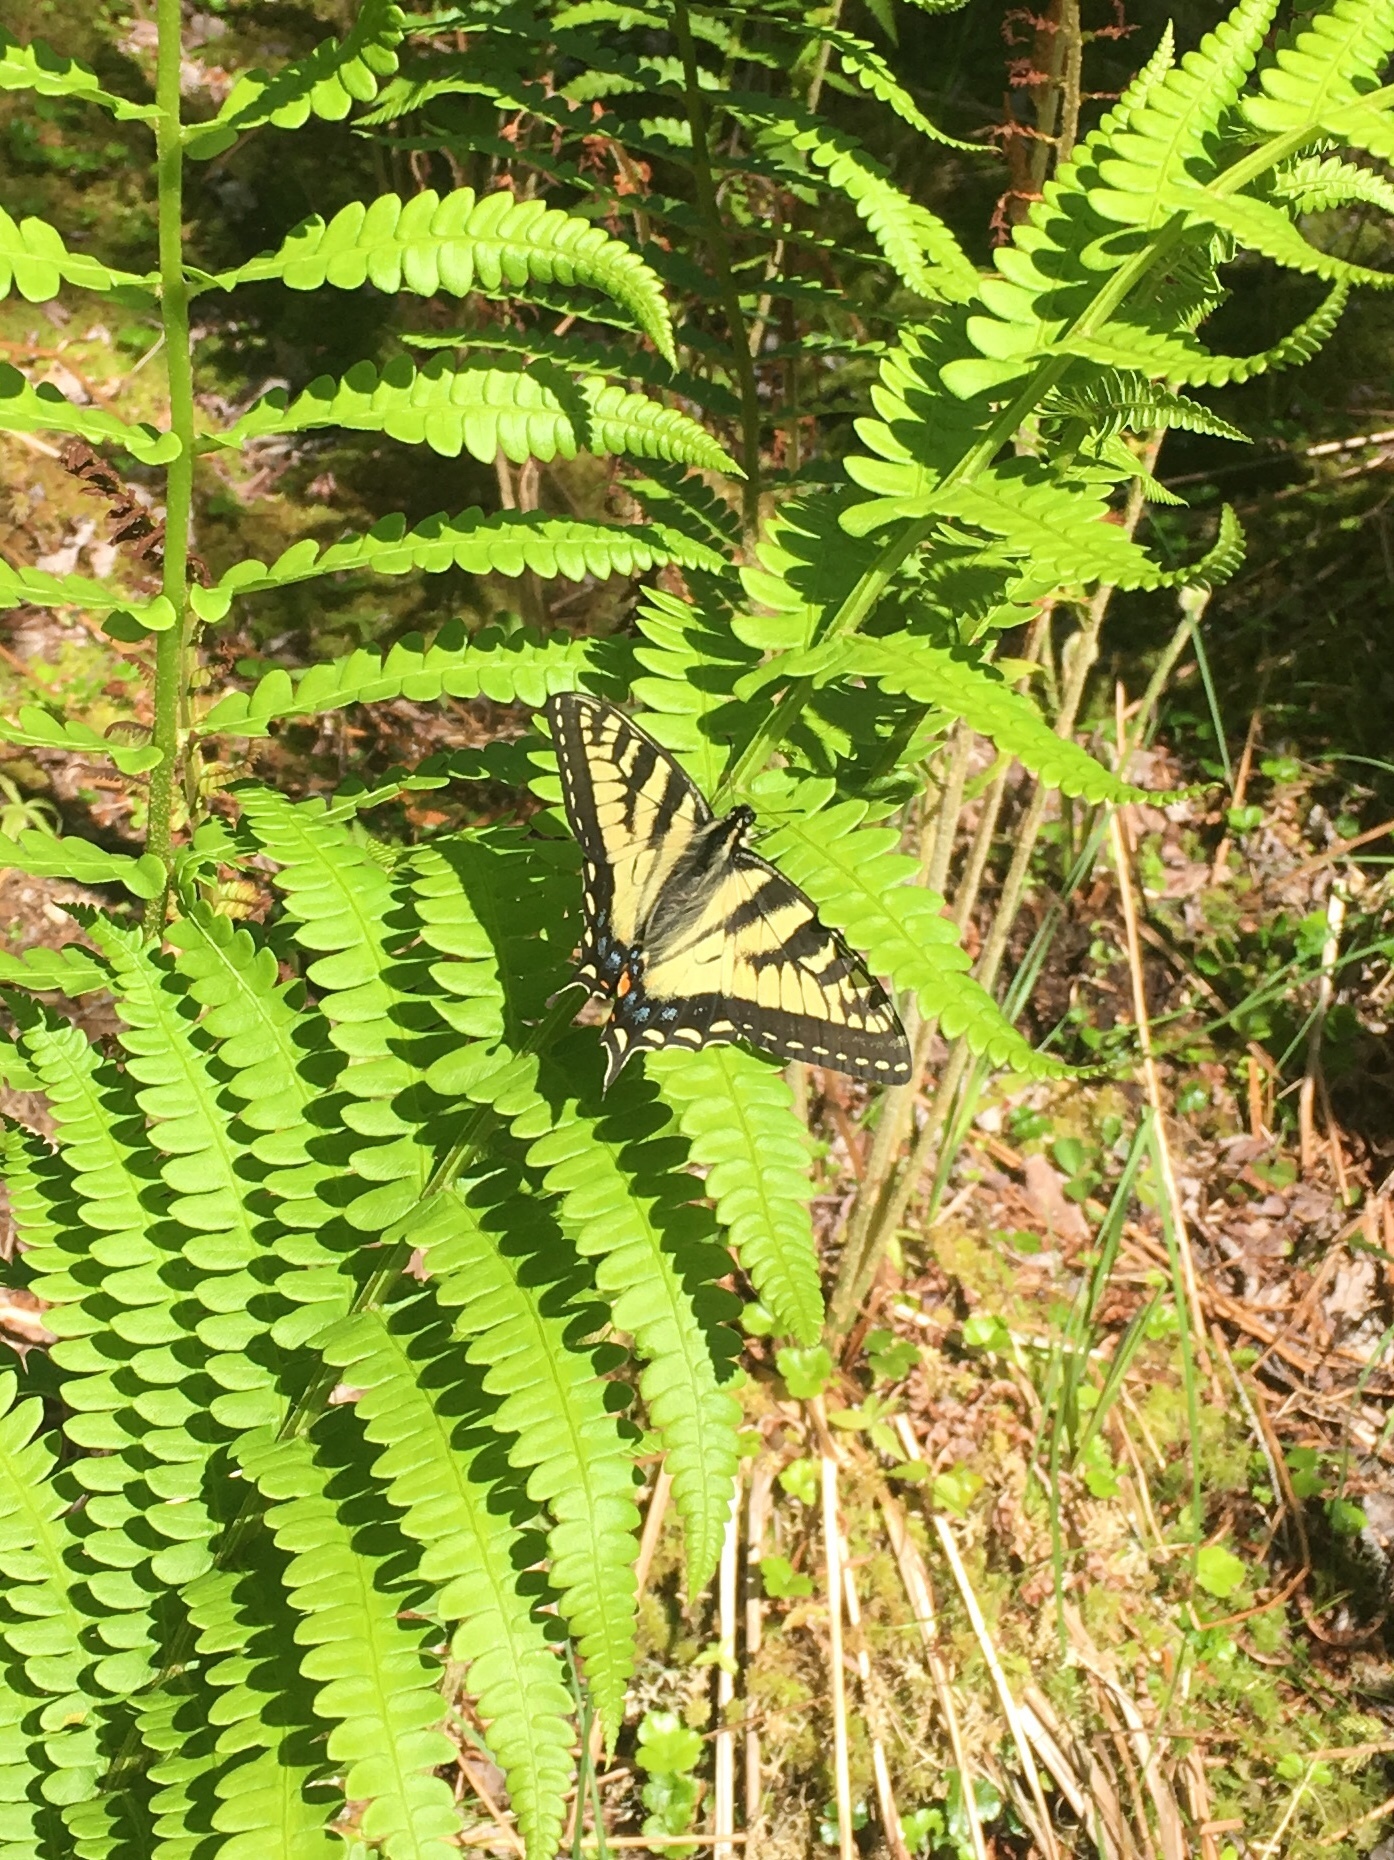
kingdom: Animalia
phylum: Arthropoda
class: Insecta
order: Lepidoptera
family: Papilionidae
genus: Papilio
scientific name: Papilio canadensis
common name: Canadian tiger swallowtail
